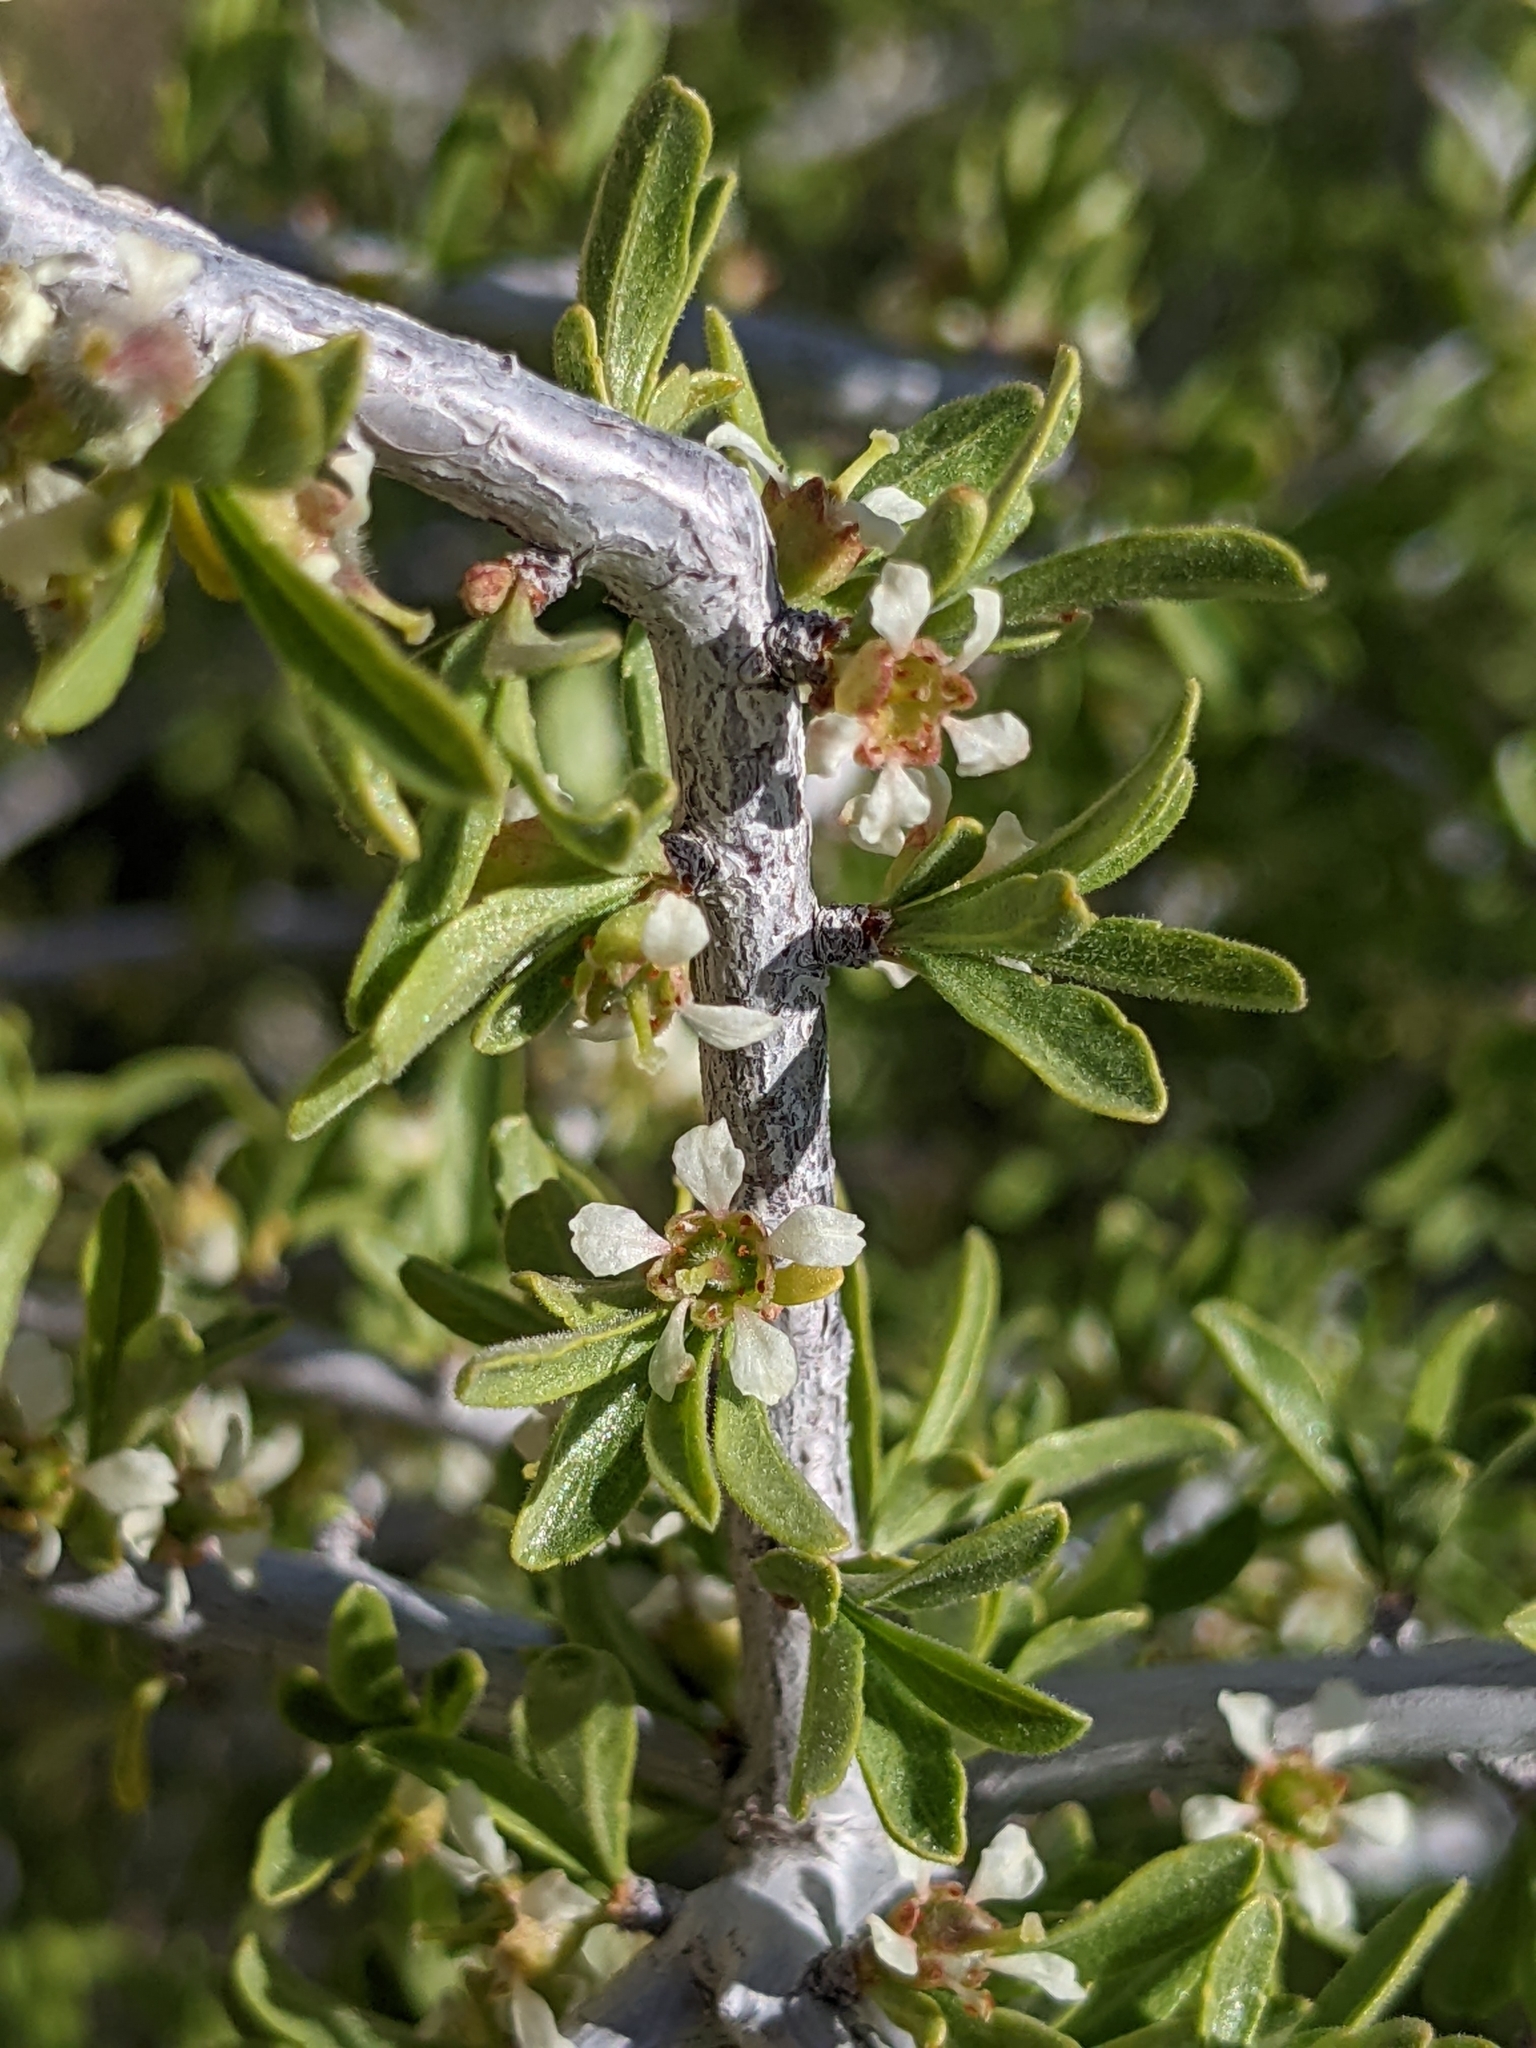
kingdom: Plantae
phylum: Tracheophyta
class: Magnoliopsida
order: Rosales
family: Rosaceae
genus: Prunus
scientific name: Prunus fasciculata
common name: Desert almond
